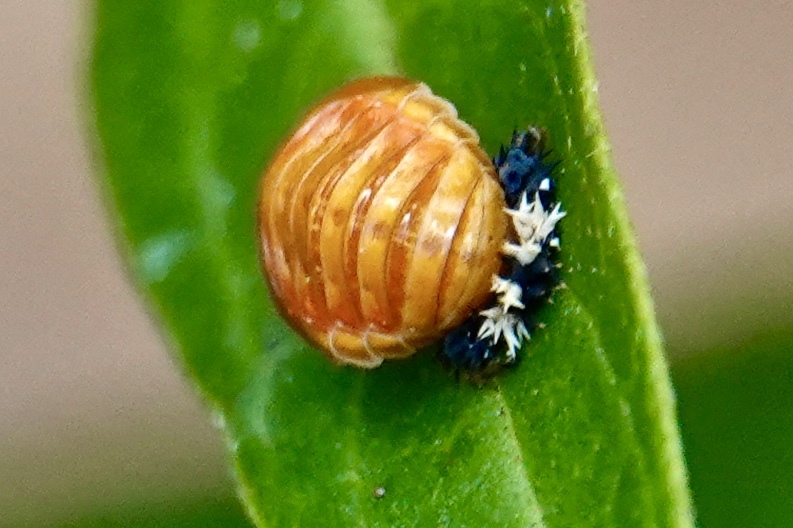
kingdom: Animalia
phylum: Arthropoda
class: Insecta
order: Coleoptera
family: Coccinellidae
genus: Harmonia
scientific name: Harmonia axyridis
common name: Harlequin ladybird
